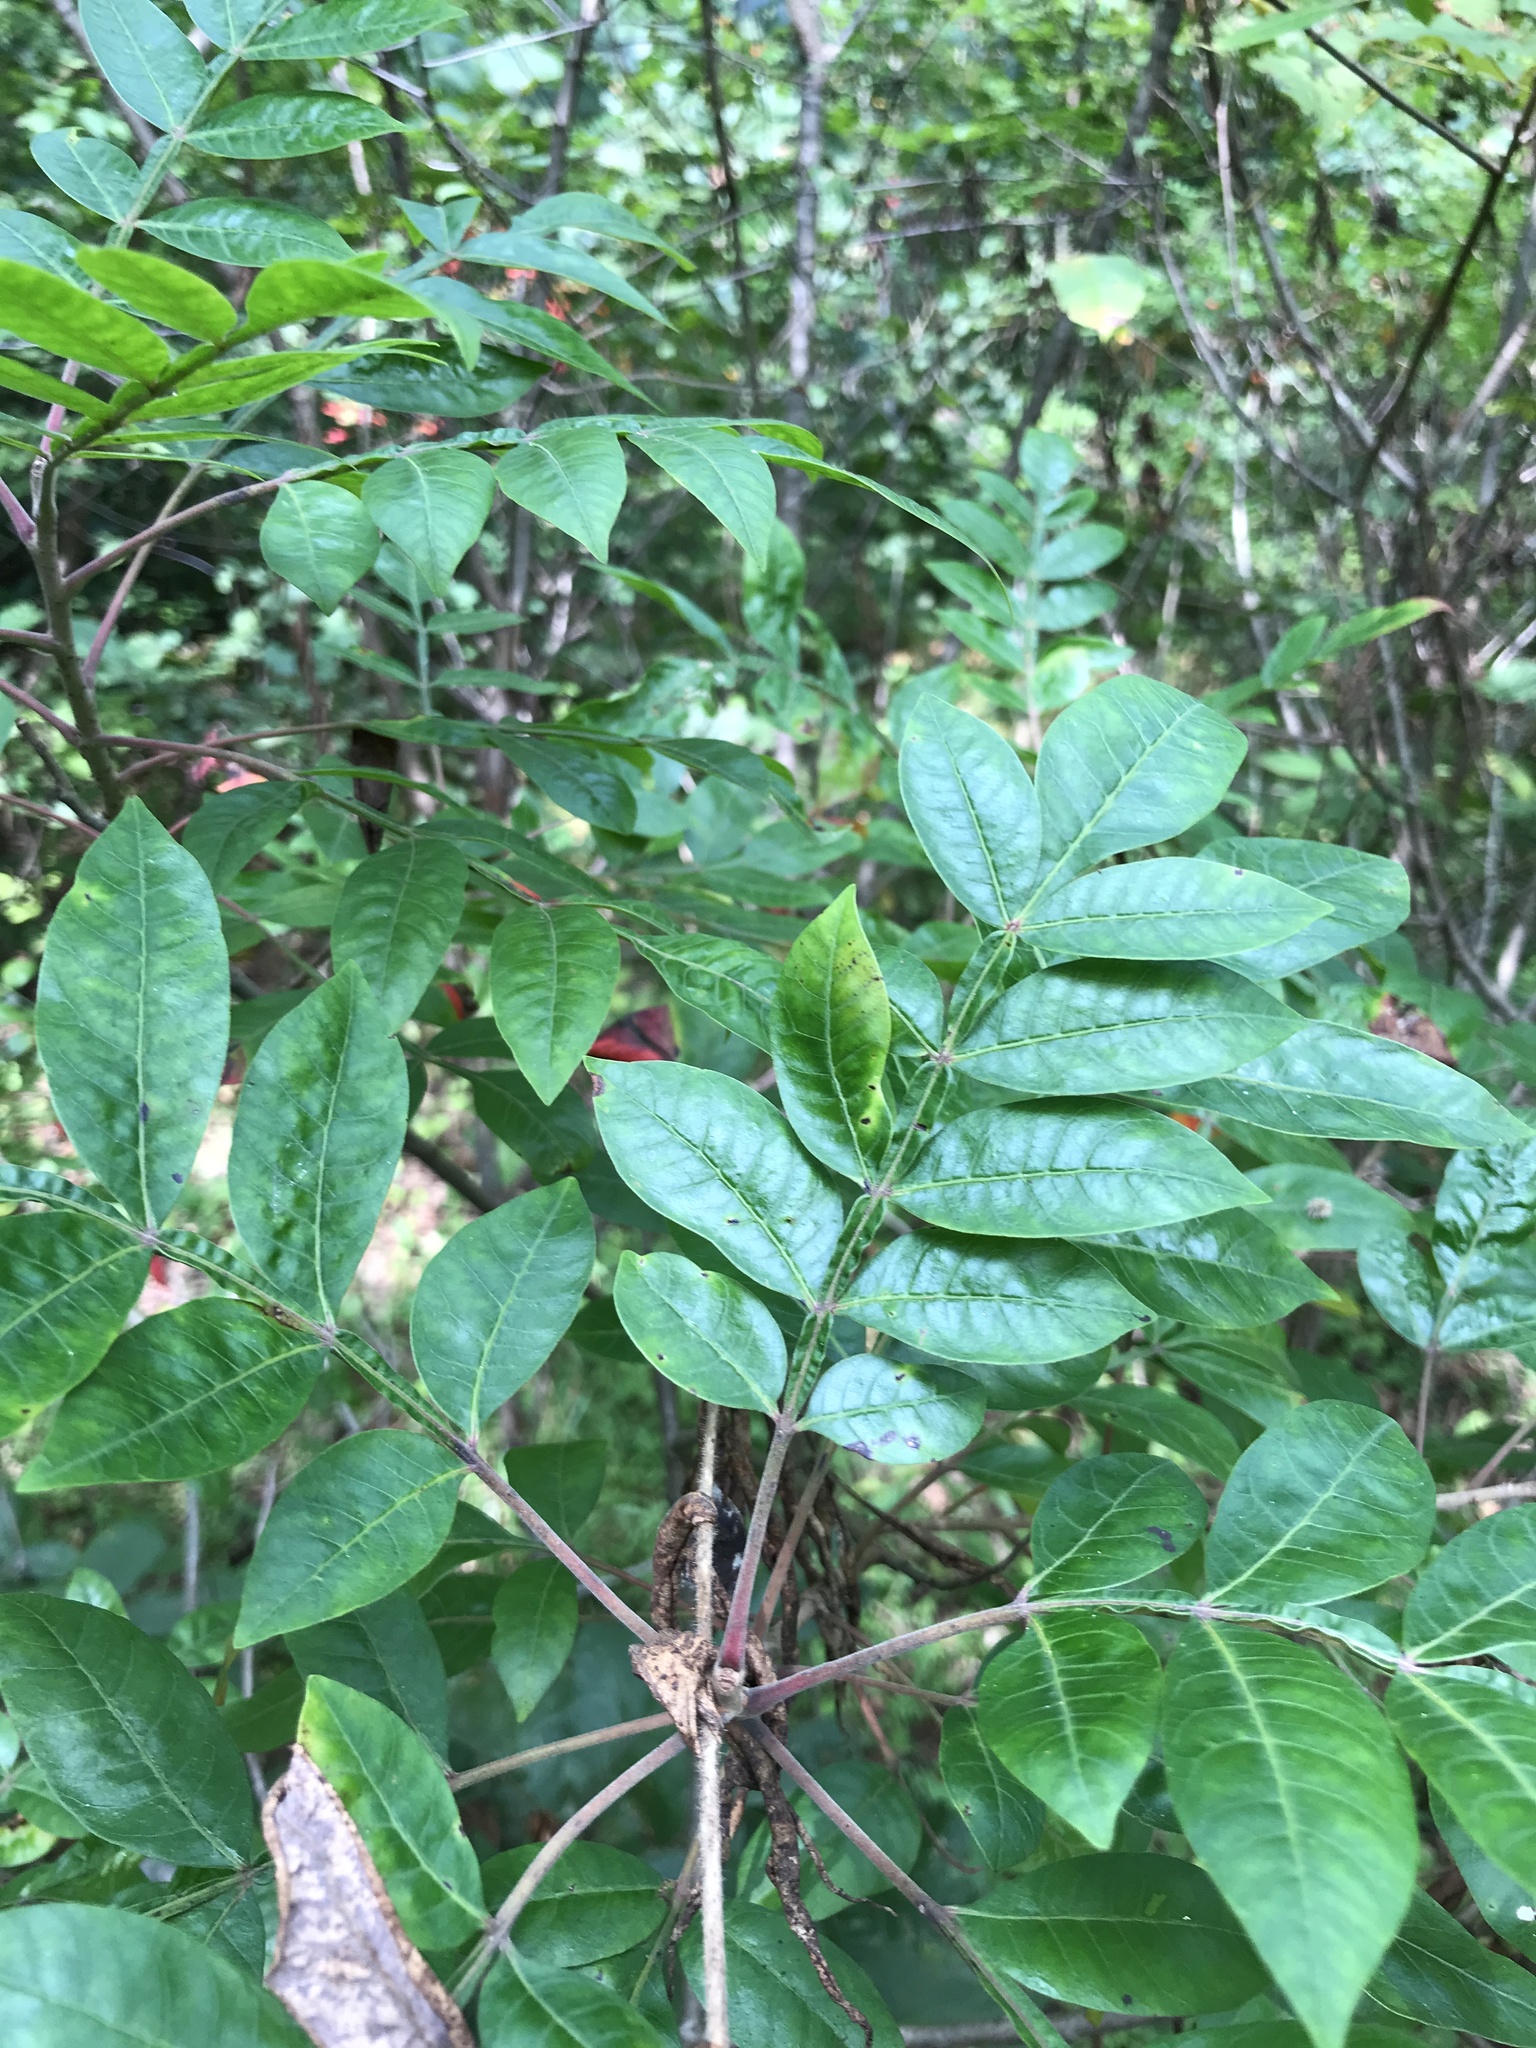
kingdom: Plantae
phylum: Tracheophyta
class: Magnoliopsida
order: Sapindales
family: Anacardiaceae
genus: Rhus
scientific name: Rhus copallina
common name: Shining sumac
